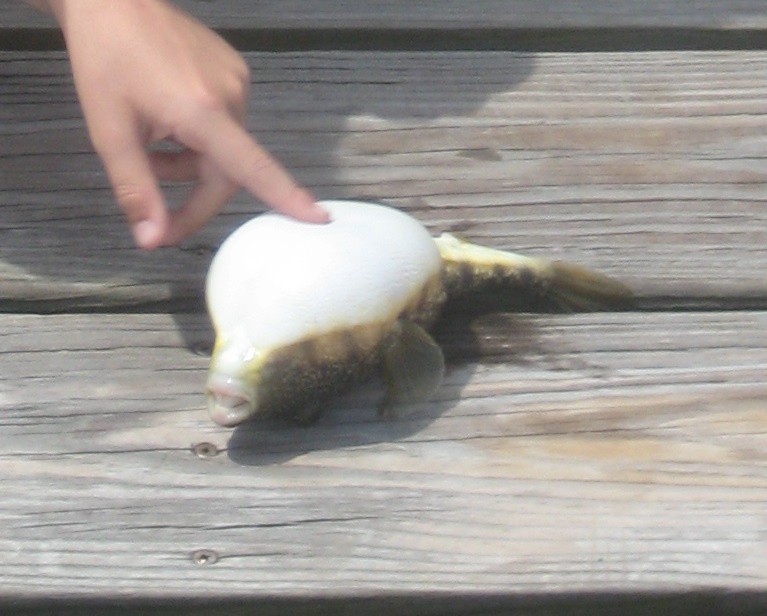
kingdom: Animalia
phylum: Chordata
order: Tetraodontiformes
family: Tetraodontidae
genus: Sphoeroides
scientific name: Sphoeroides nephelus
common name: Southern puffer
